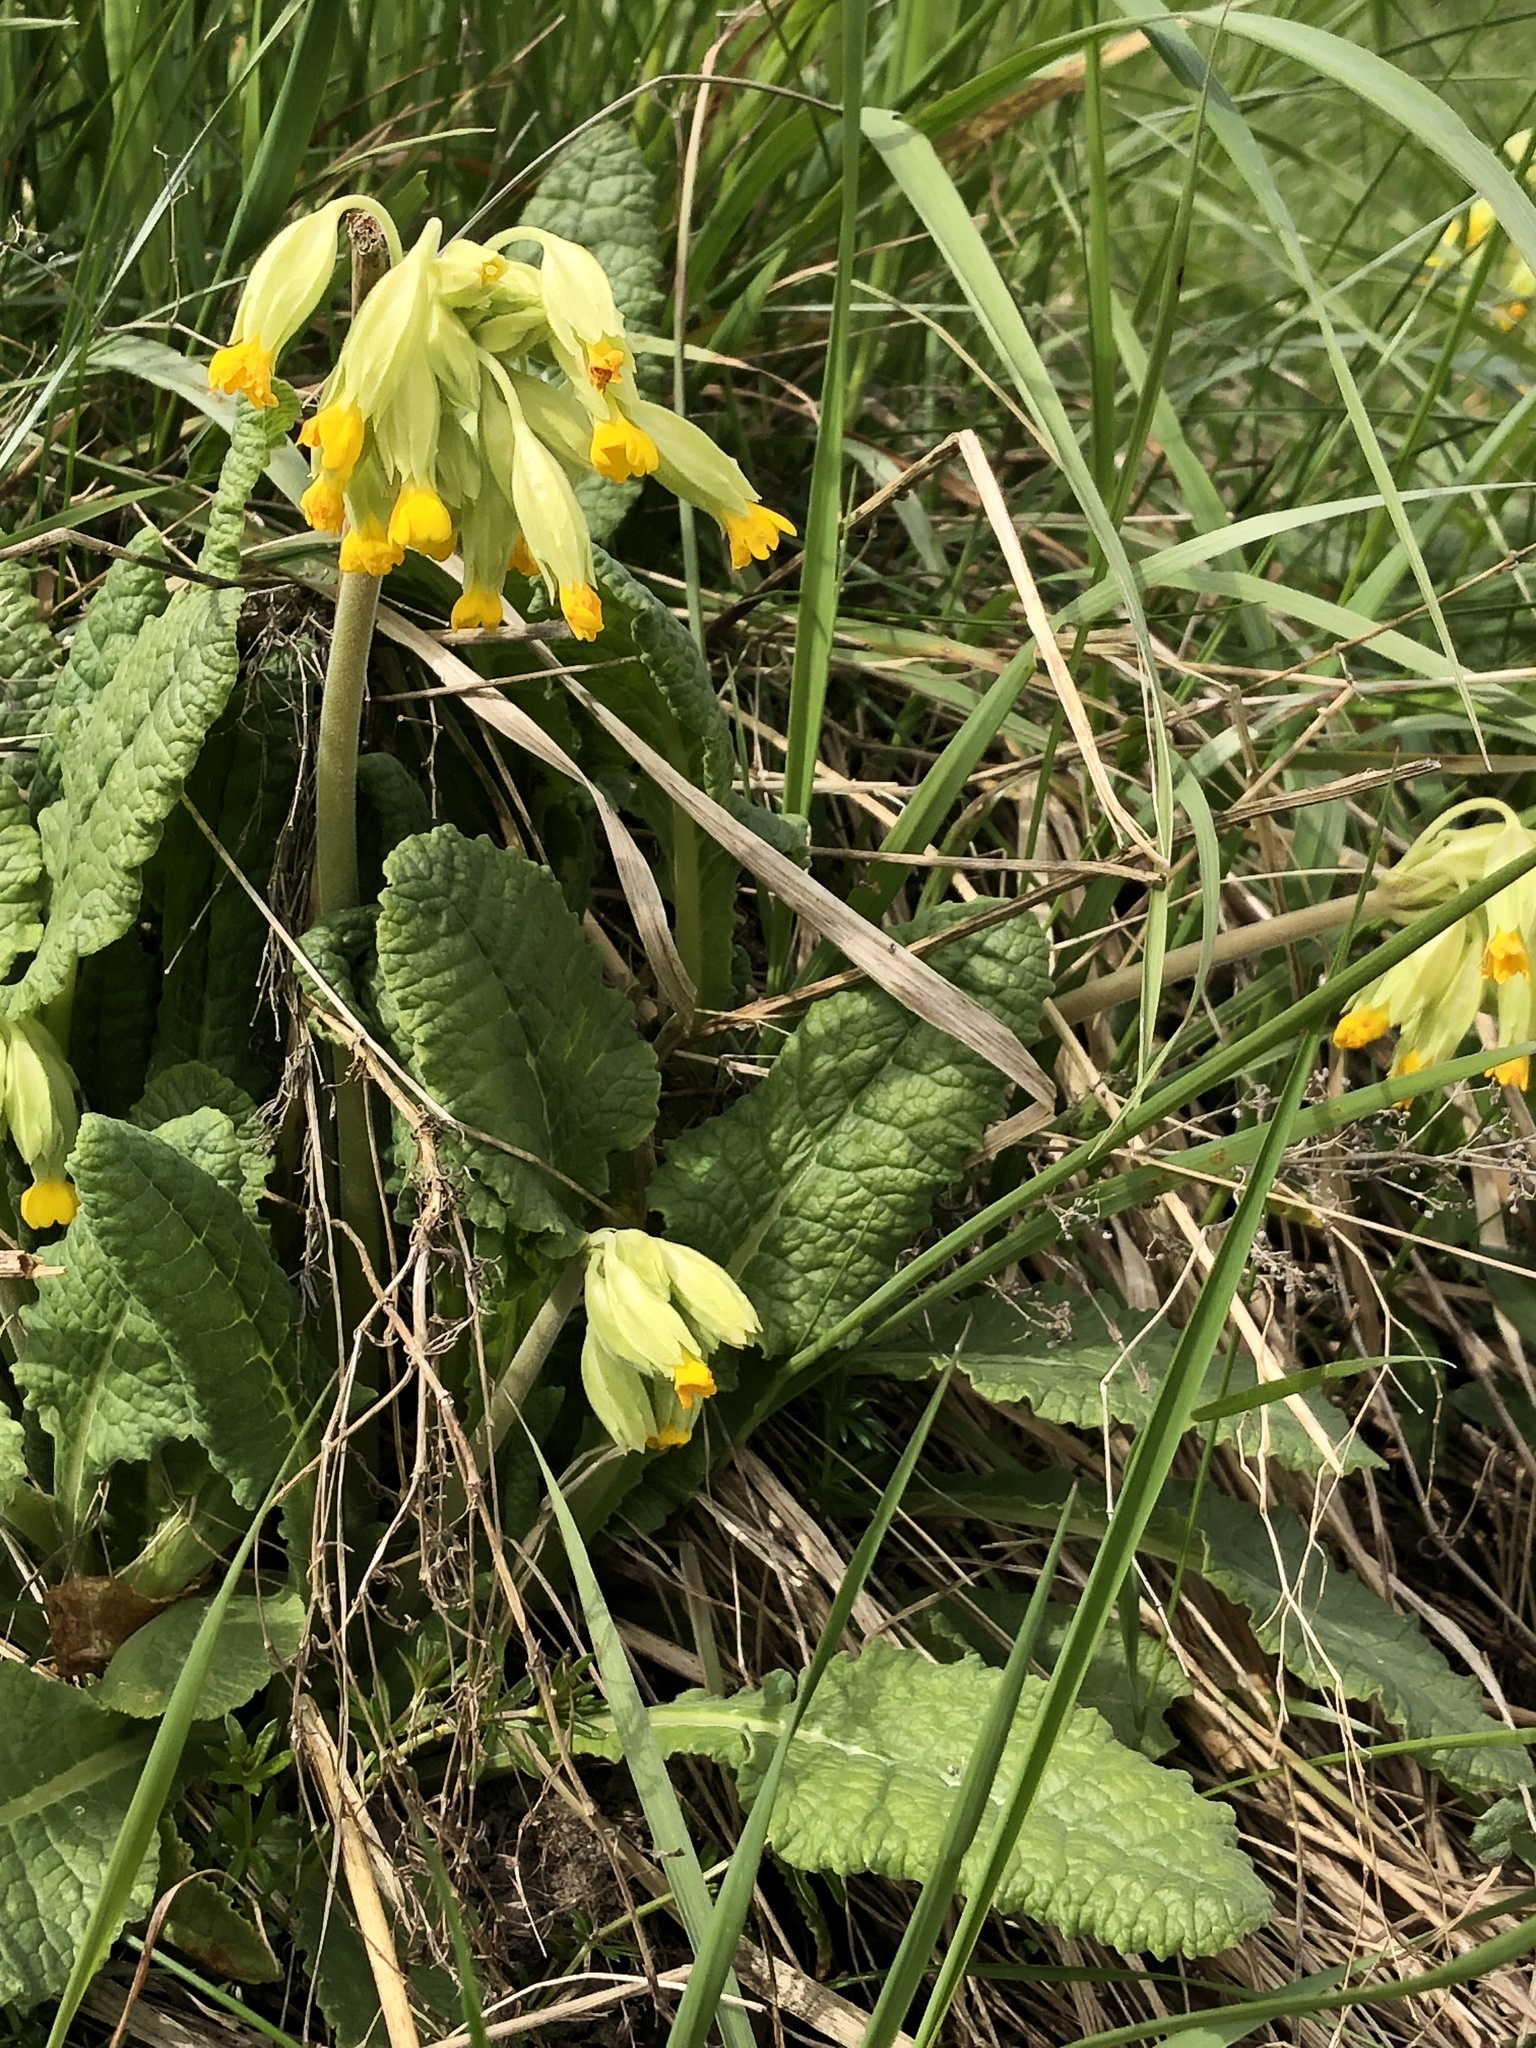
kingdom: Plantae
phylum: Tracheophyta
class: Magnoliopsida
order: Ericales
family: Primulaceae
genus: Primula
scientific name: Primula veris
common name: Cowslip
